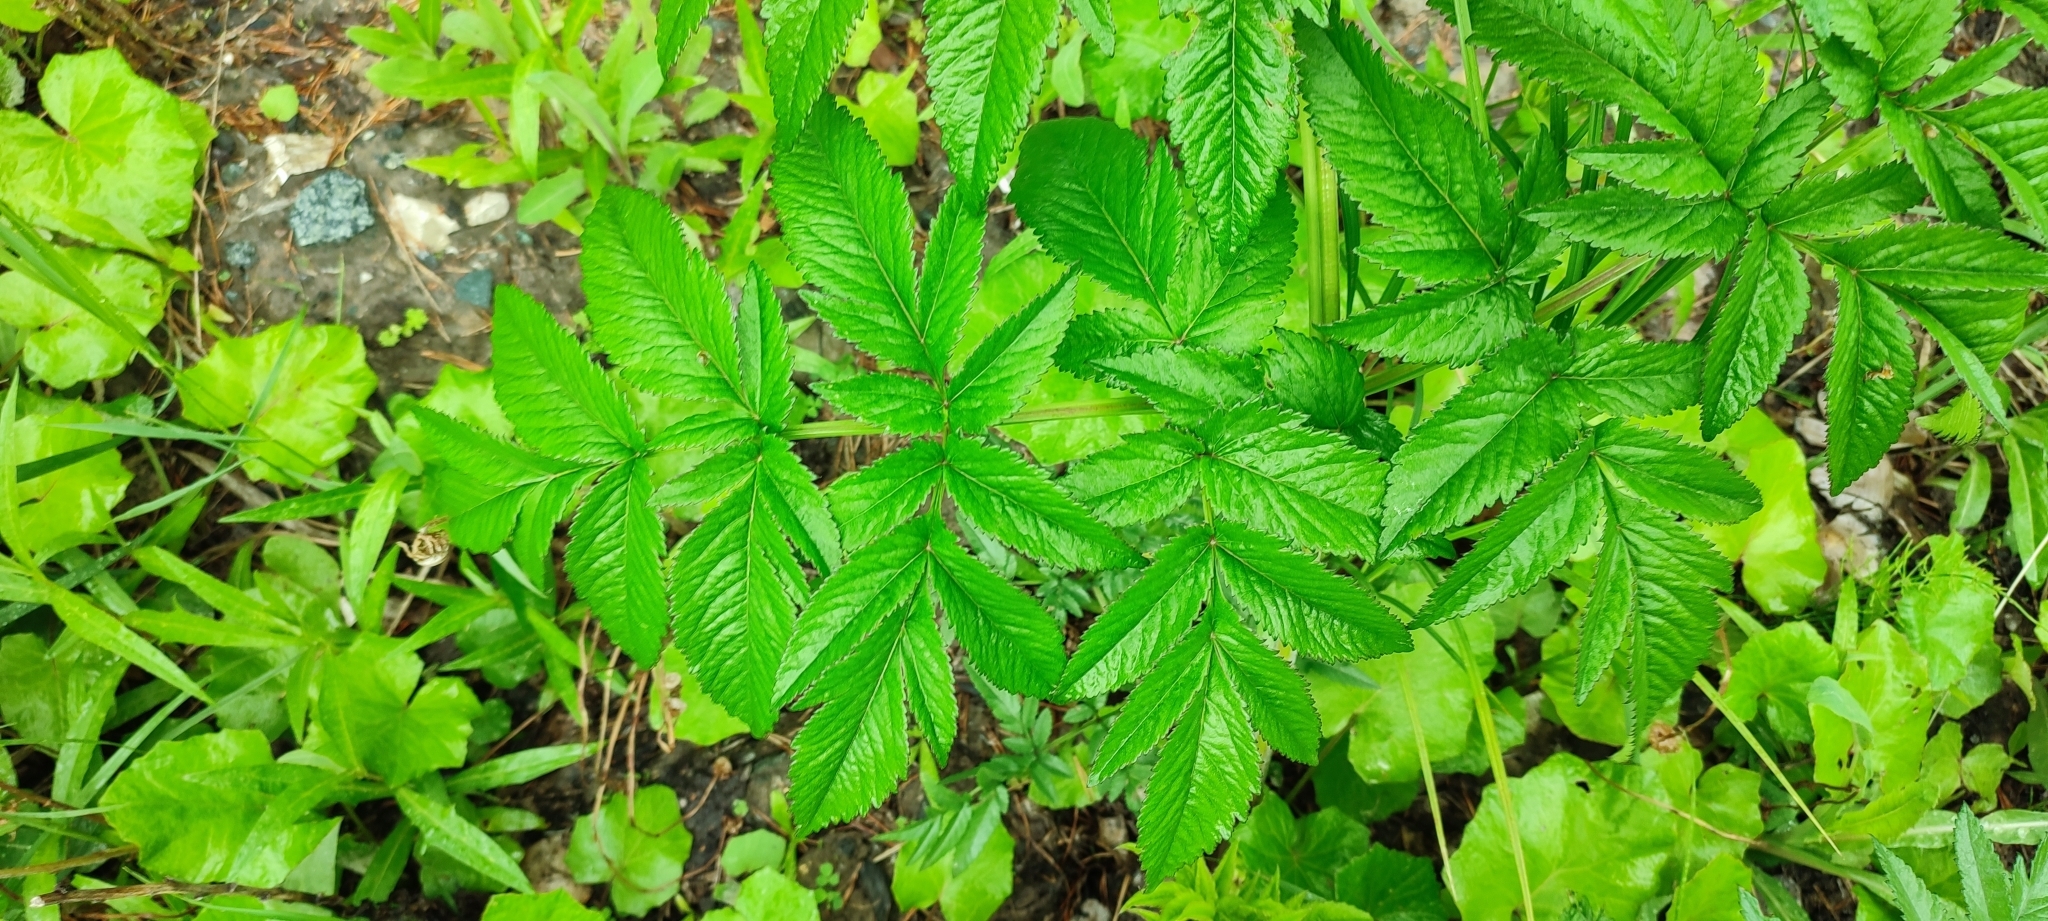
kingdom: Plantae
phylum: Tracheophyta
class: Magnoliopsida
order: Apiales
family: Apiaceae
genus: Angelica
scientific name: Angelica sylvestris
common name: Wild angelica
